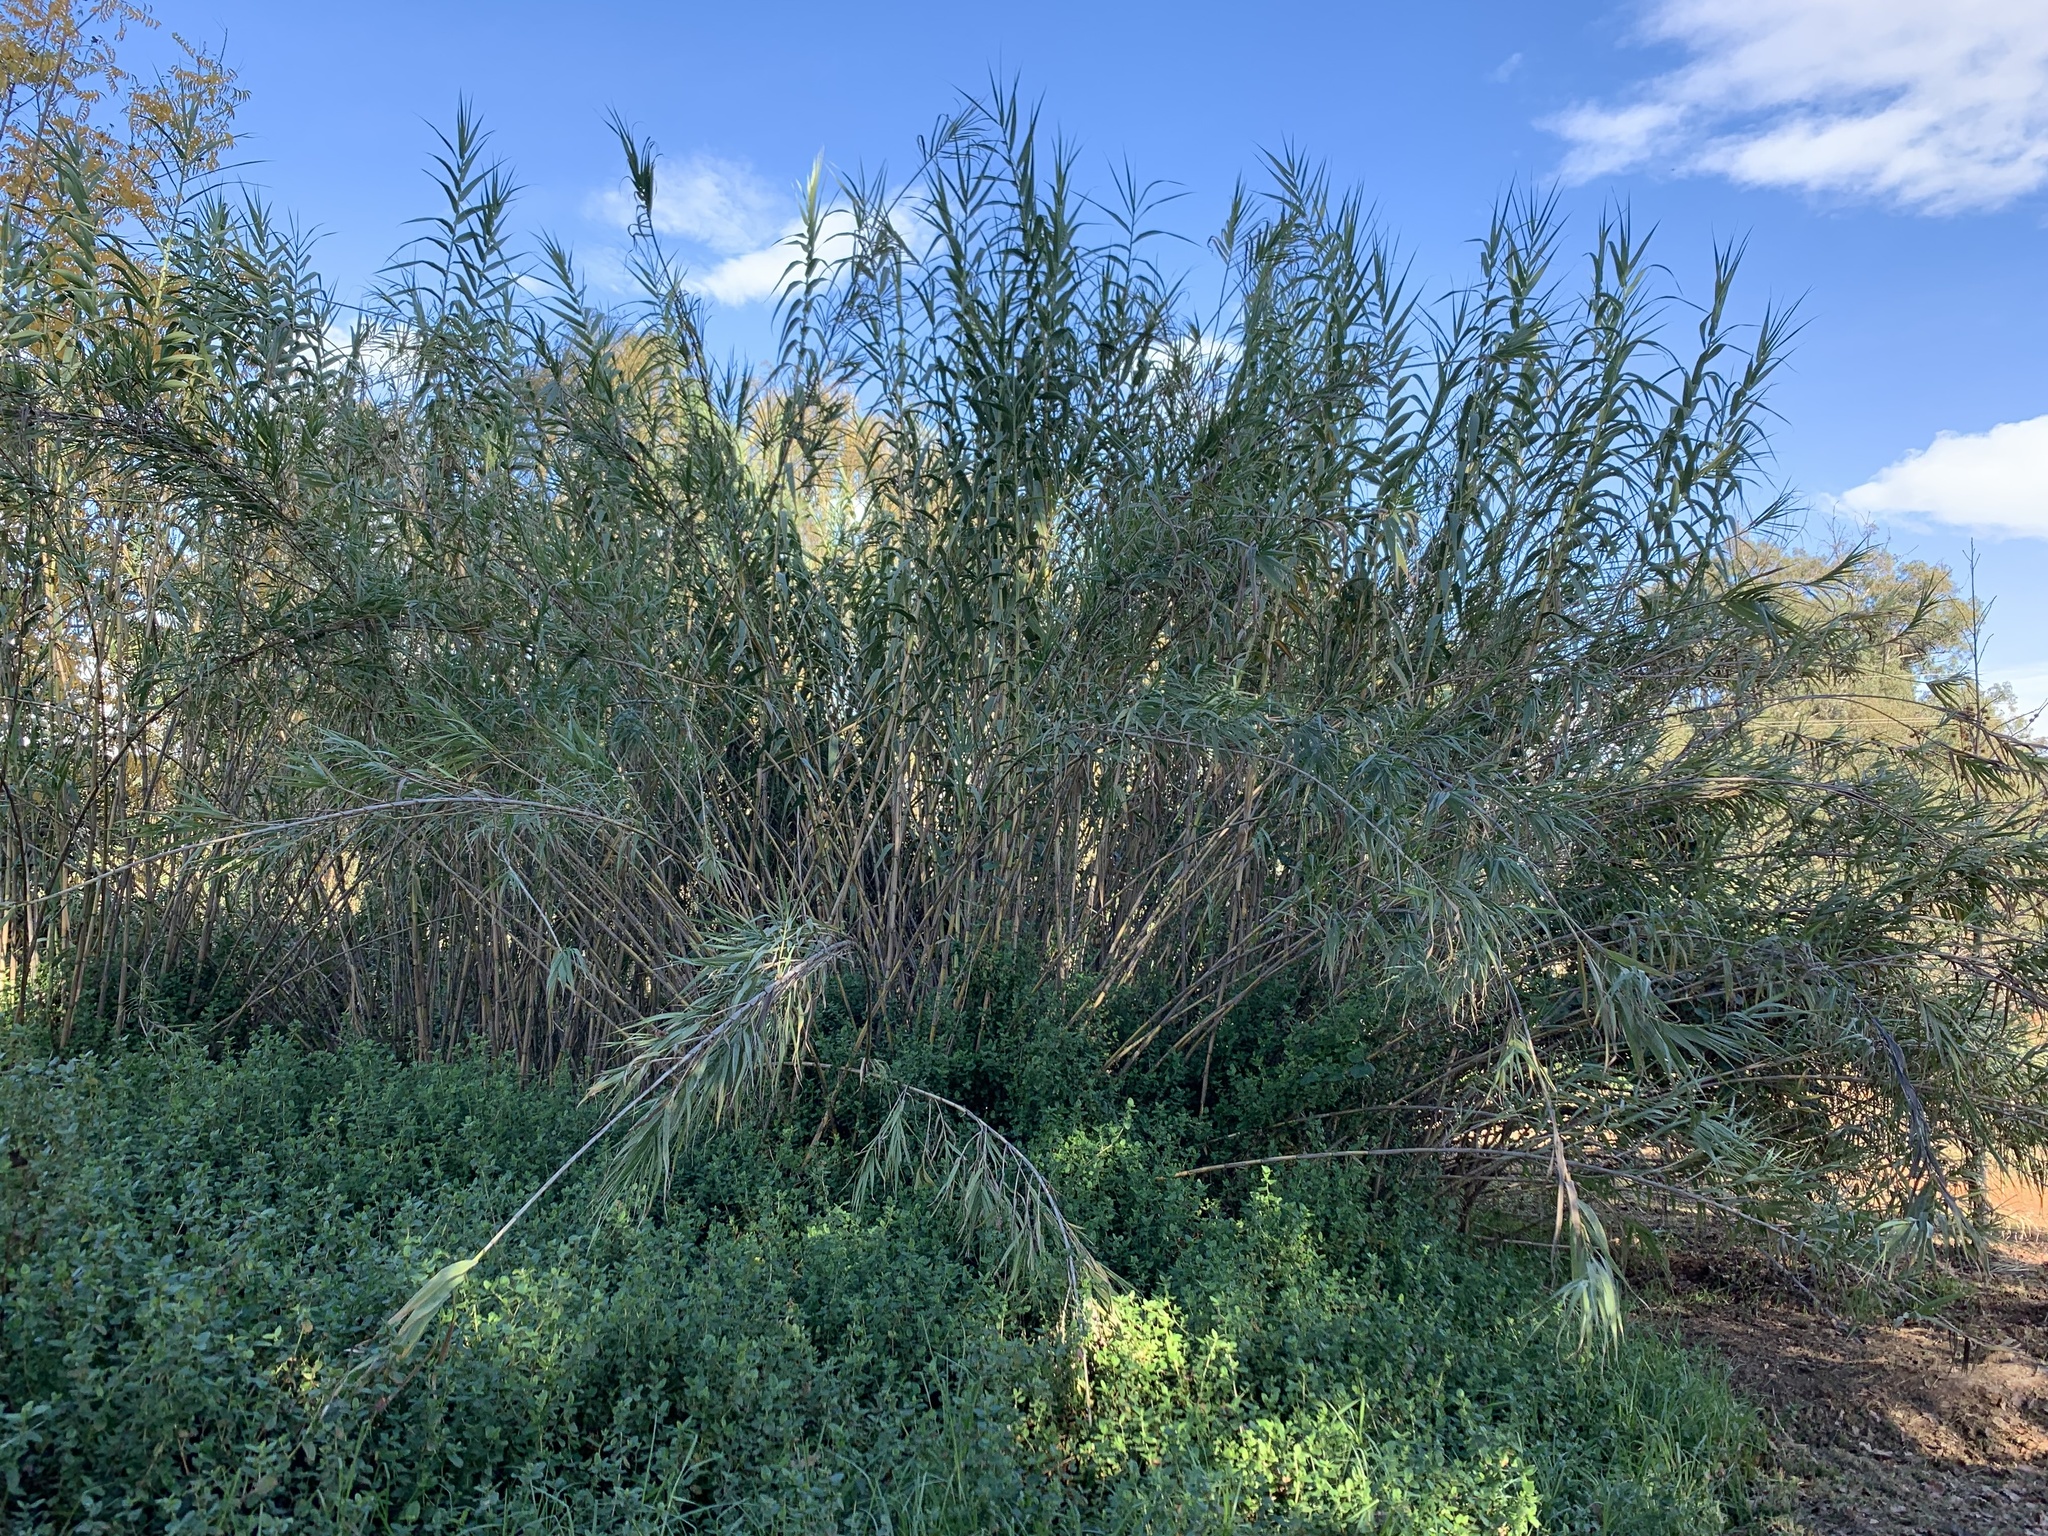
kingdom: Plantae
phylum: Tracheophyta
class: Liliopsida
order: Poales
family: Poaceae
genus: Arundo
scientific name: Arundo donax
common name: Giant reed
